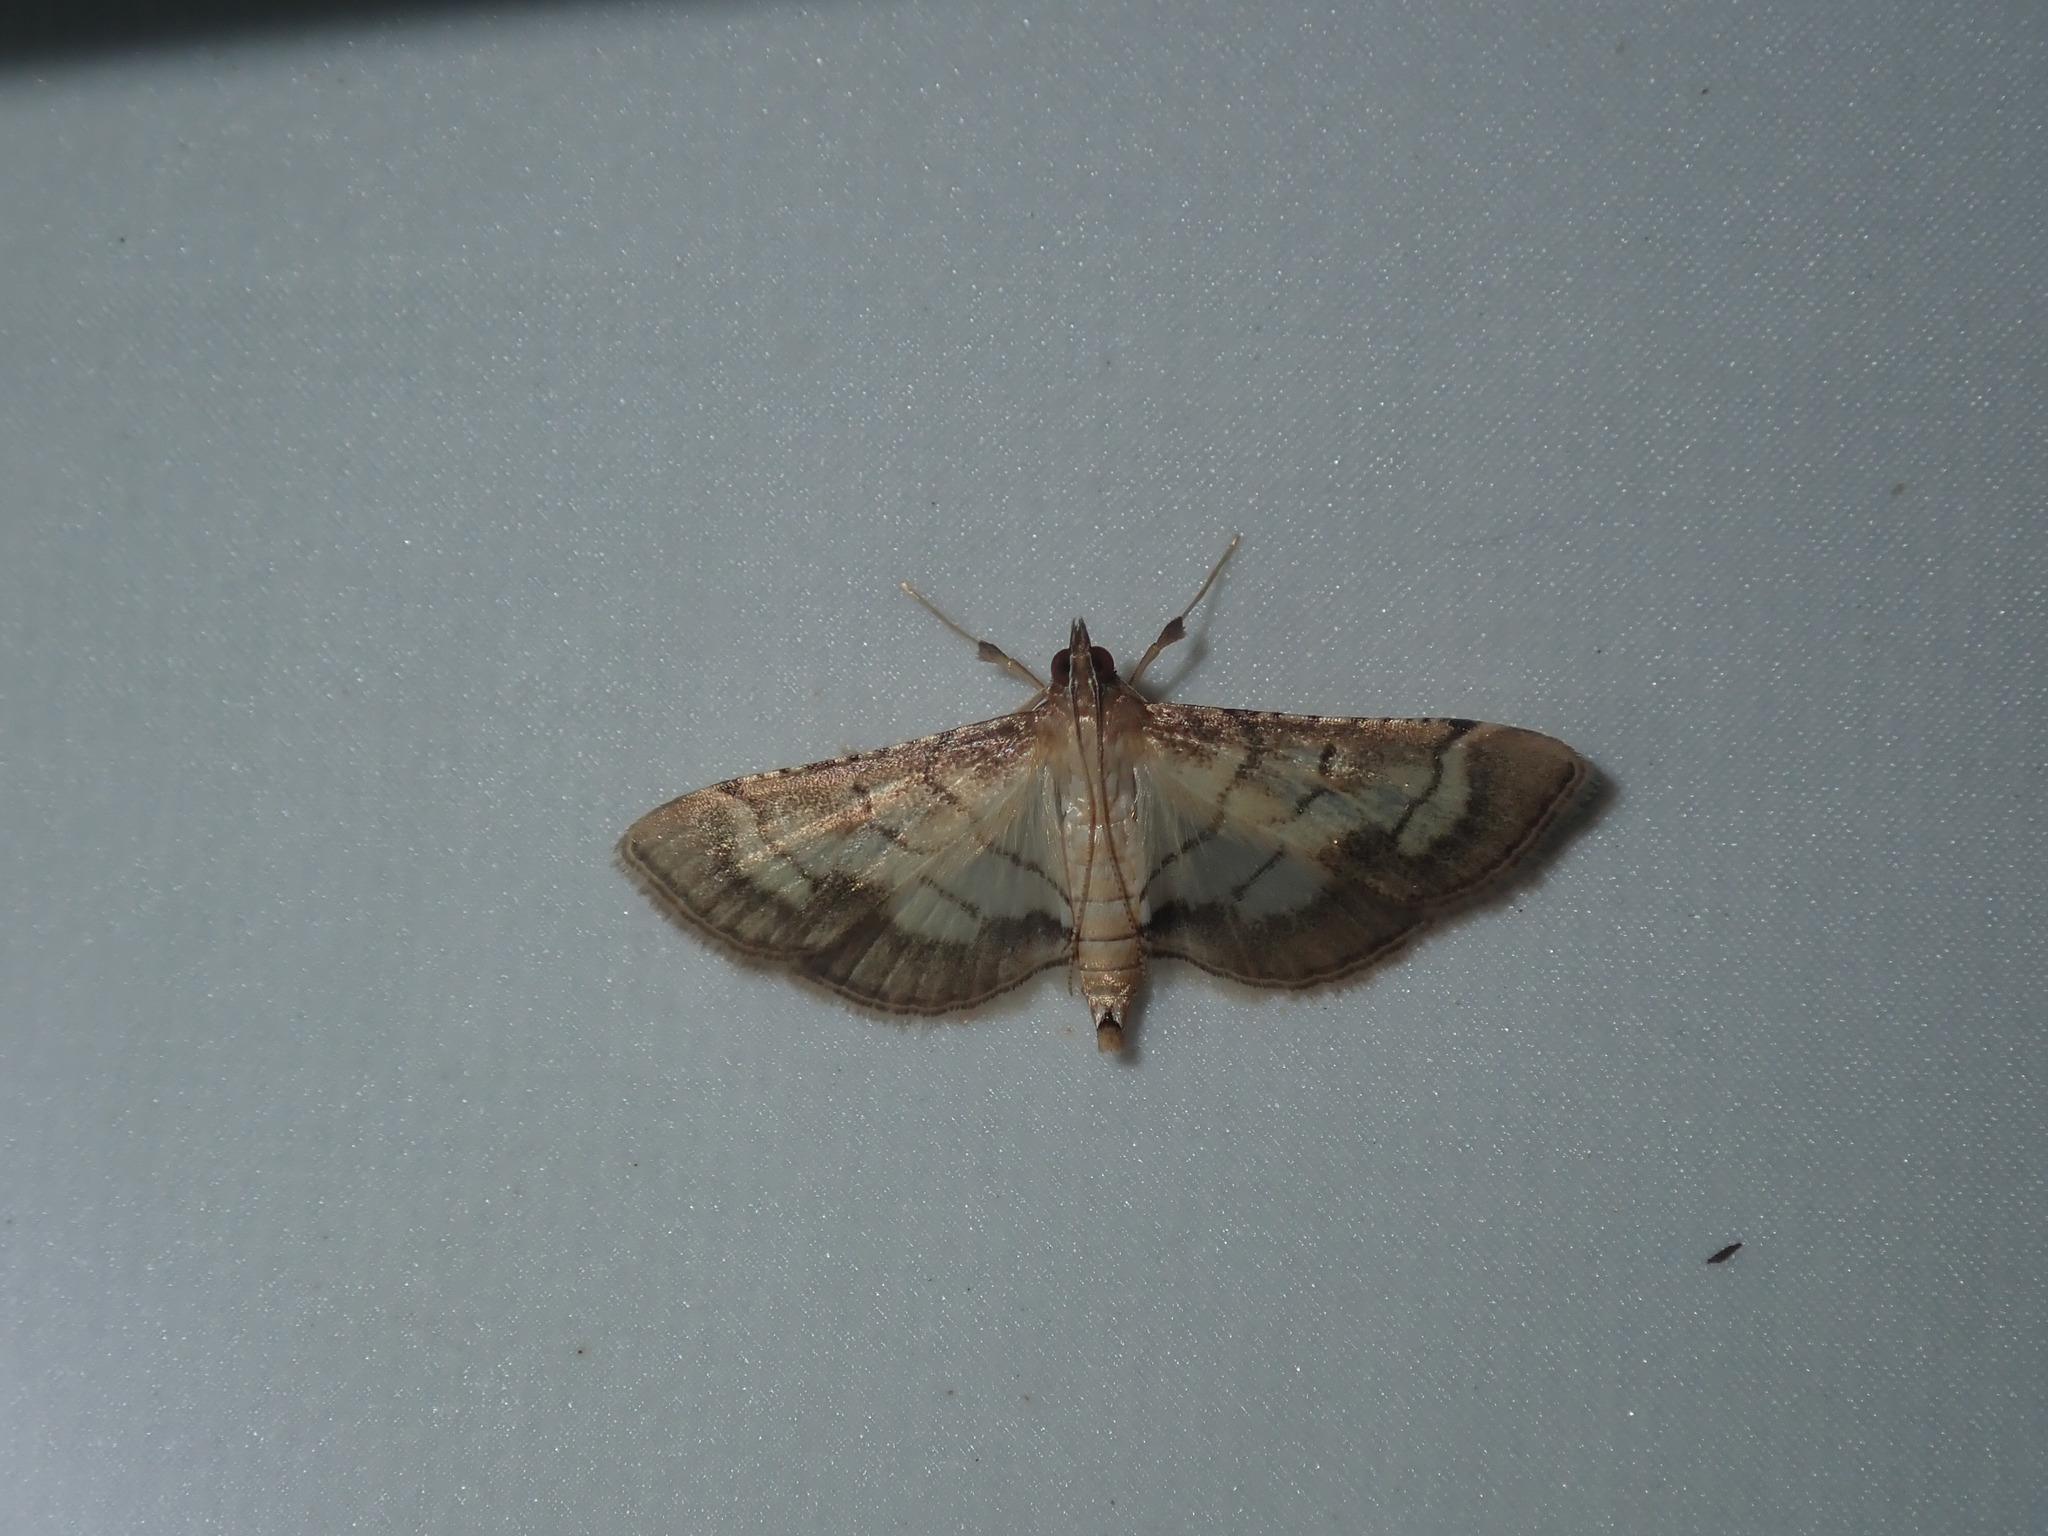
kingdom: Animalia
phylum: Arthropoda
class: Insecta
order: Lepidoptera
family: Crambidae
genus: Cnaphalocrocis
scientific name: Cnaphalocrocis poeyalis
